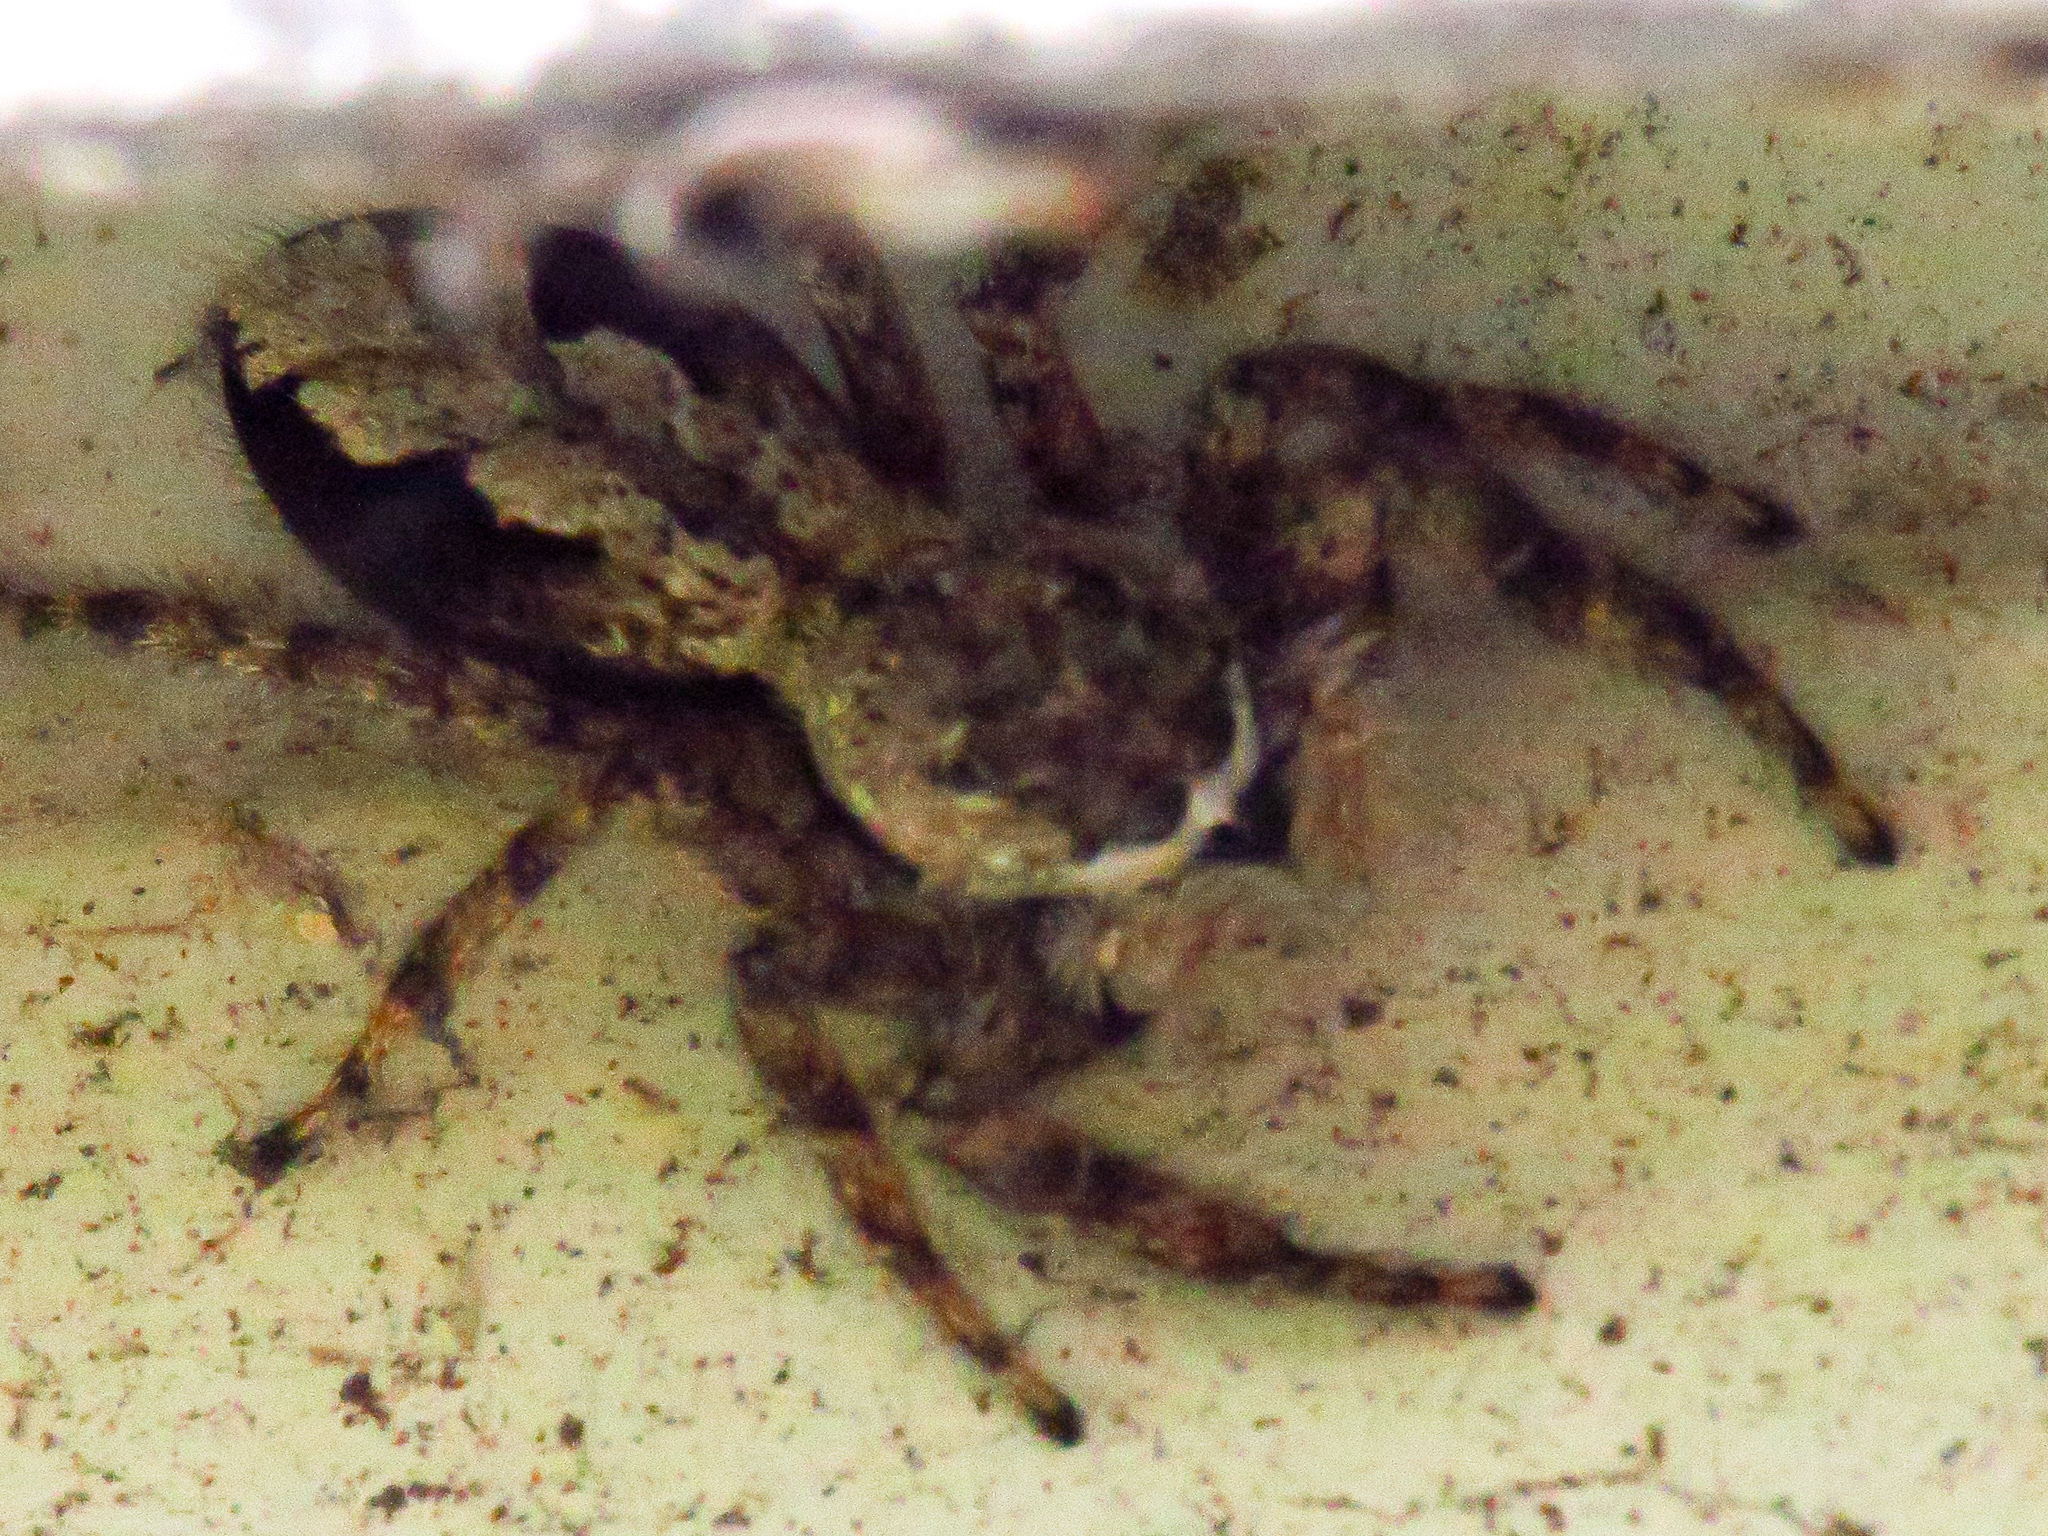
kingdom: Animalia
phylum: Arthropoda
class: Arachnida
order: Araneae
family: Salticidae
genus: Platycryptus
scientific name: Platycryptus undatus
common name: Tan jumping spider
